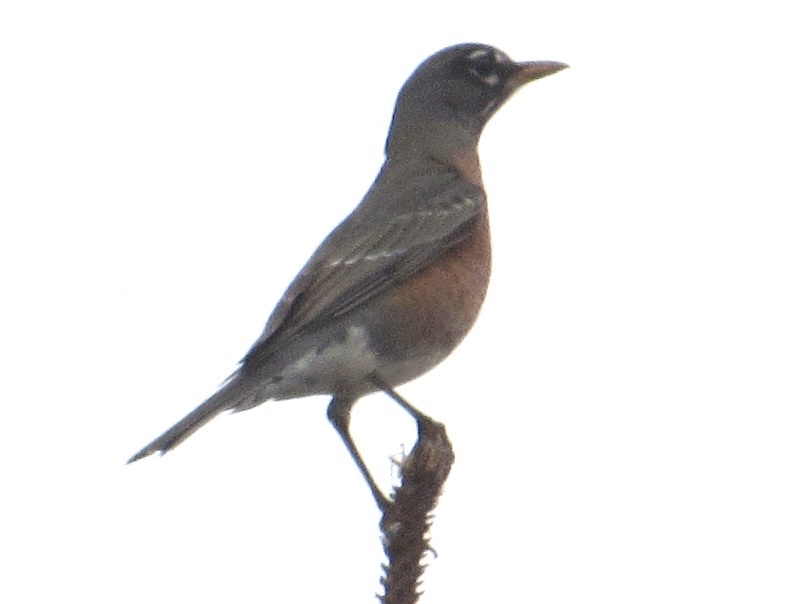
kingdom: Animalia
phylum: Chordata
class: Aves
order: Passeriformes
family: Turdidae
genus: Turdus
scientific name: Turdus migratorius
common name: American robin
